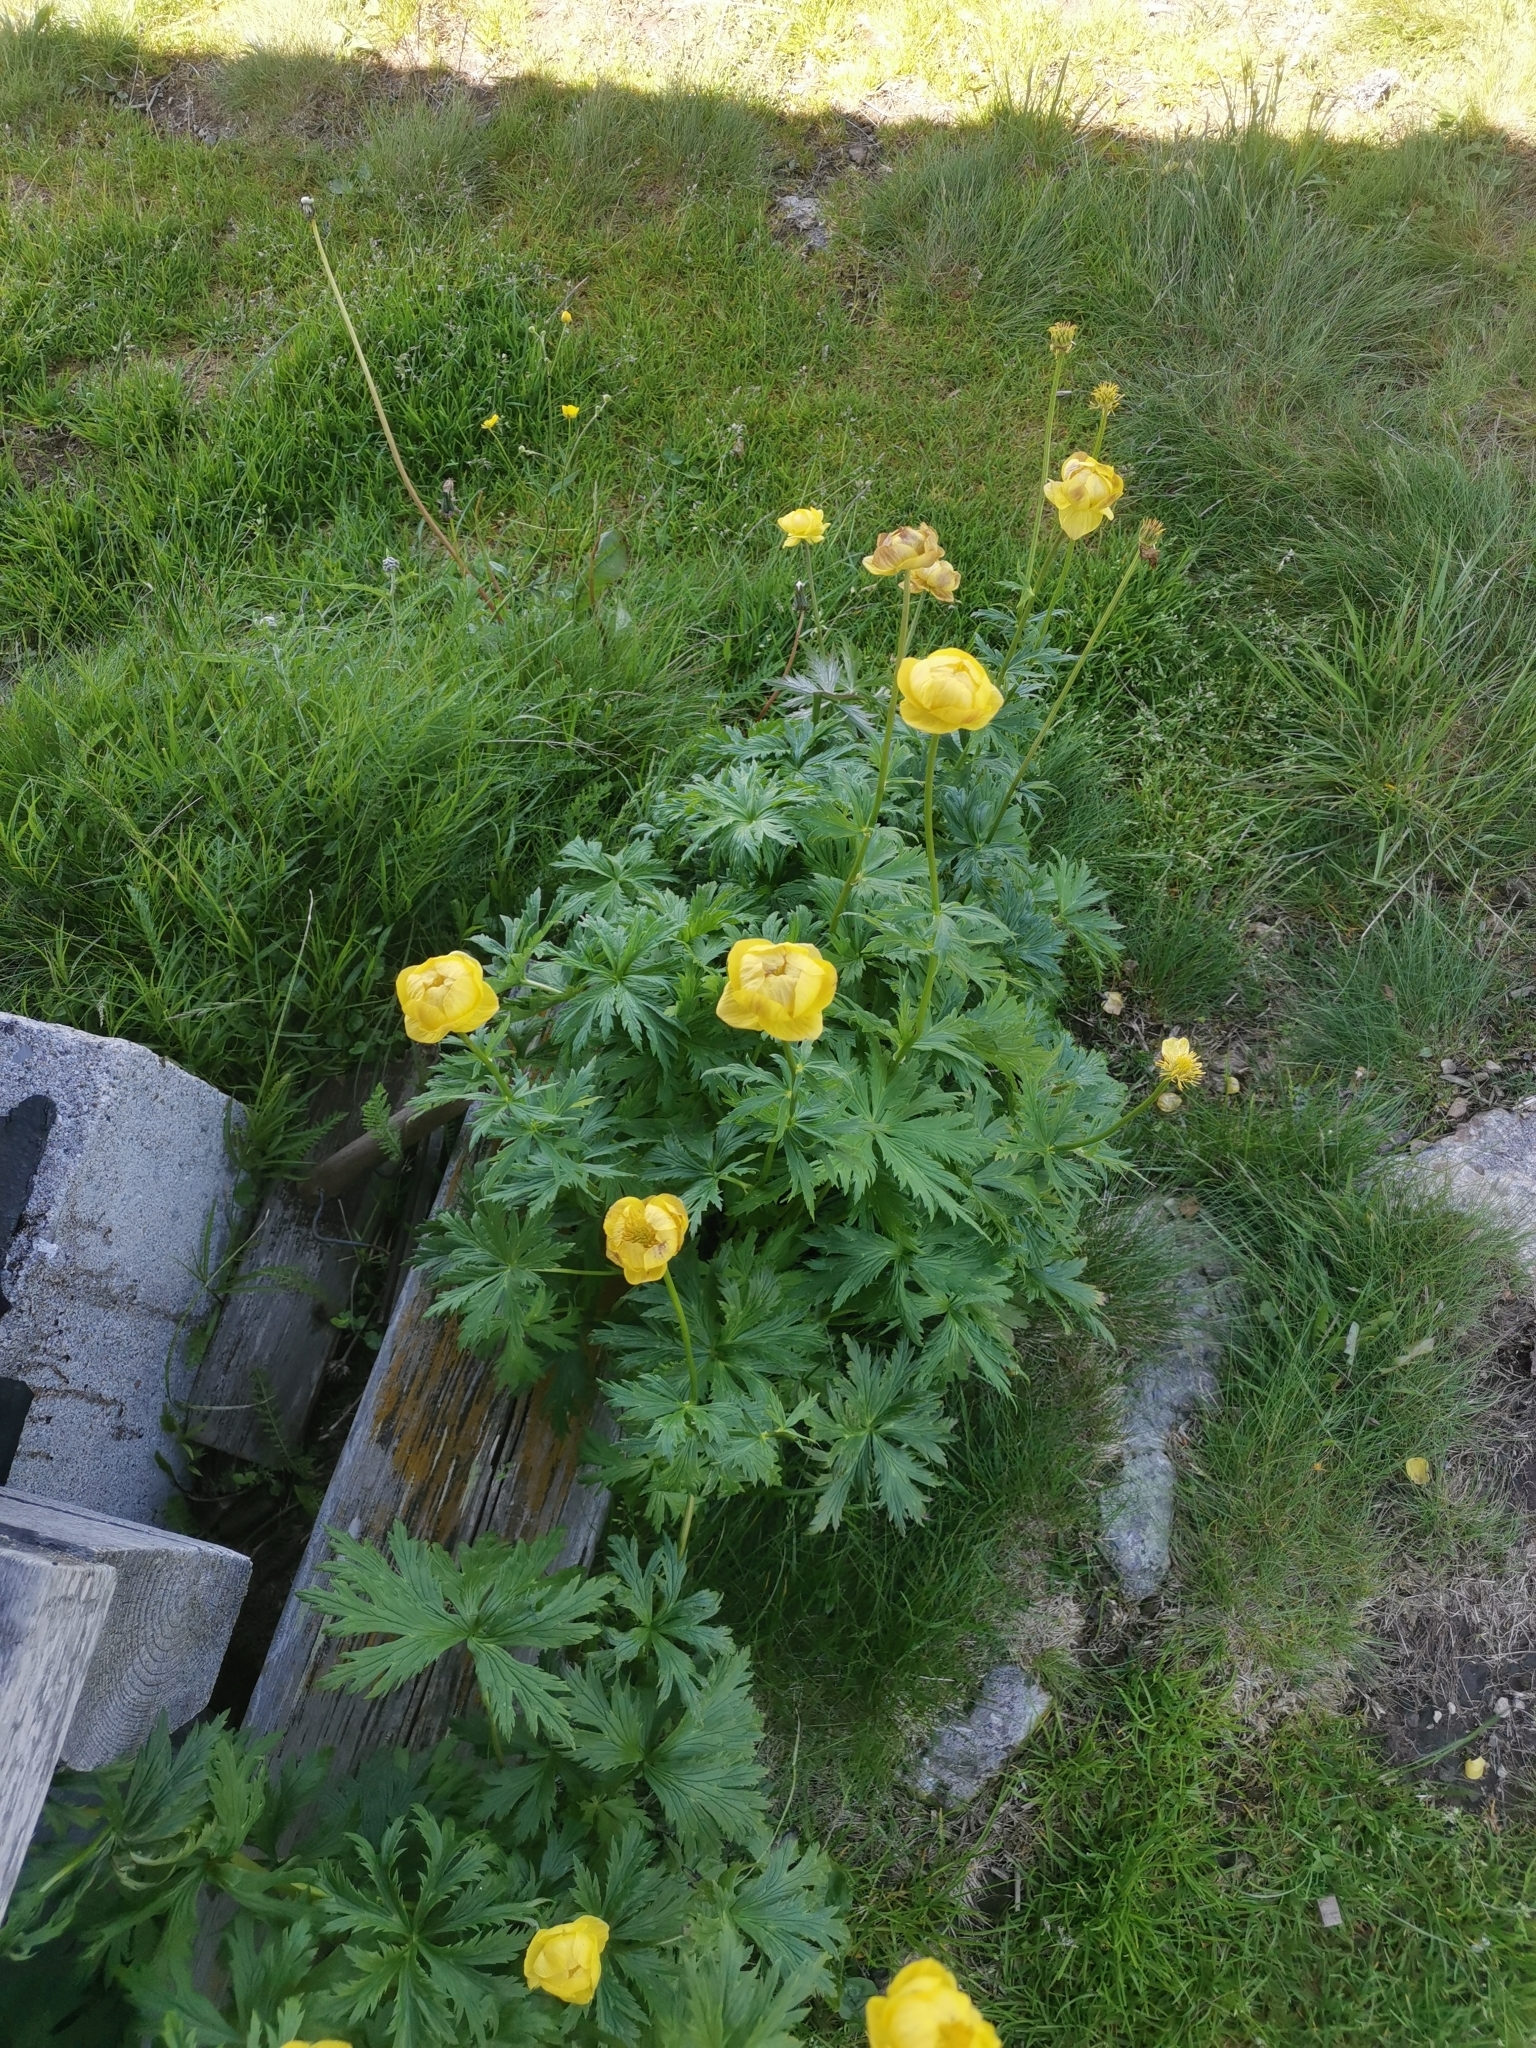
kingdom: Plantae
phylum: Tracheophyta
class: Magnoliopsida
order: Ranunculales
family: Ranunculaceae
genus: Trollius
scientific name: Trollius europaeus
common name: European globeflower
